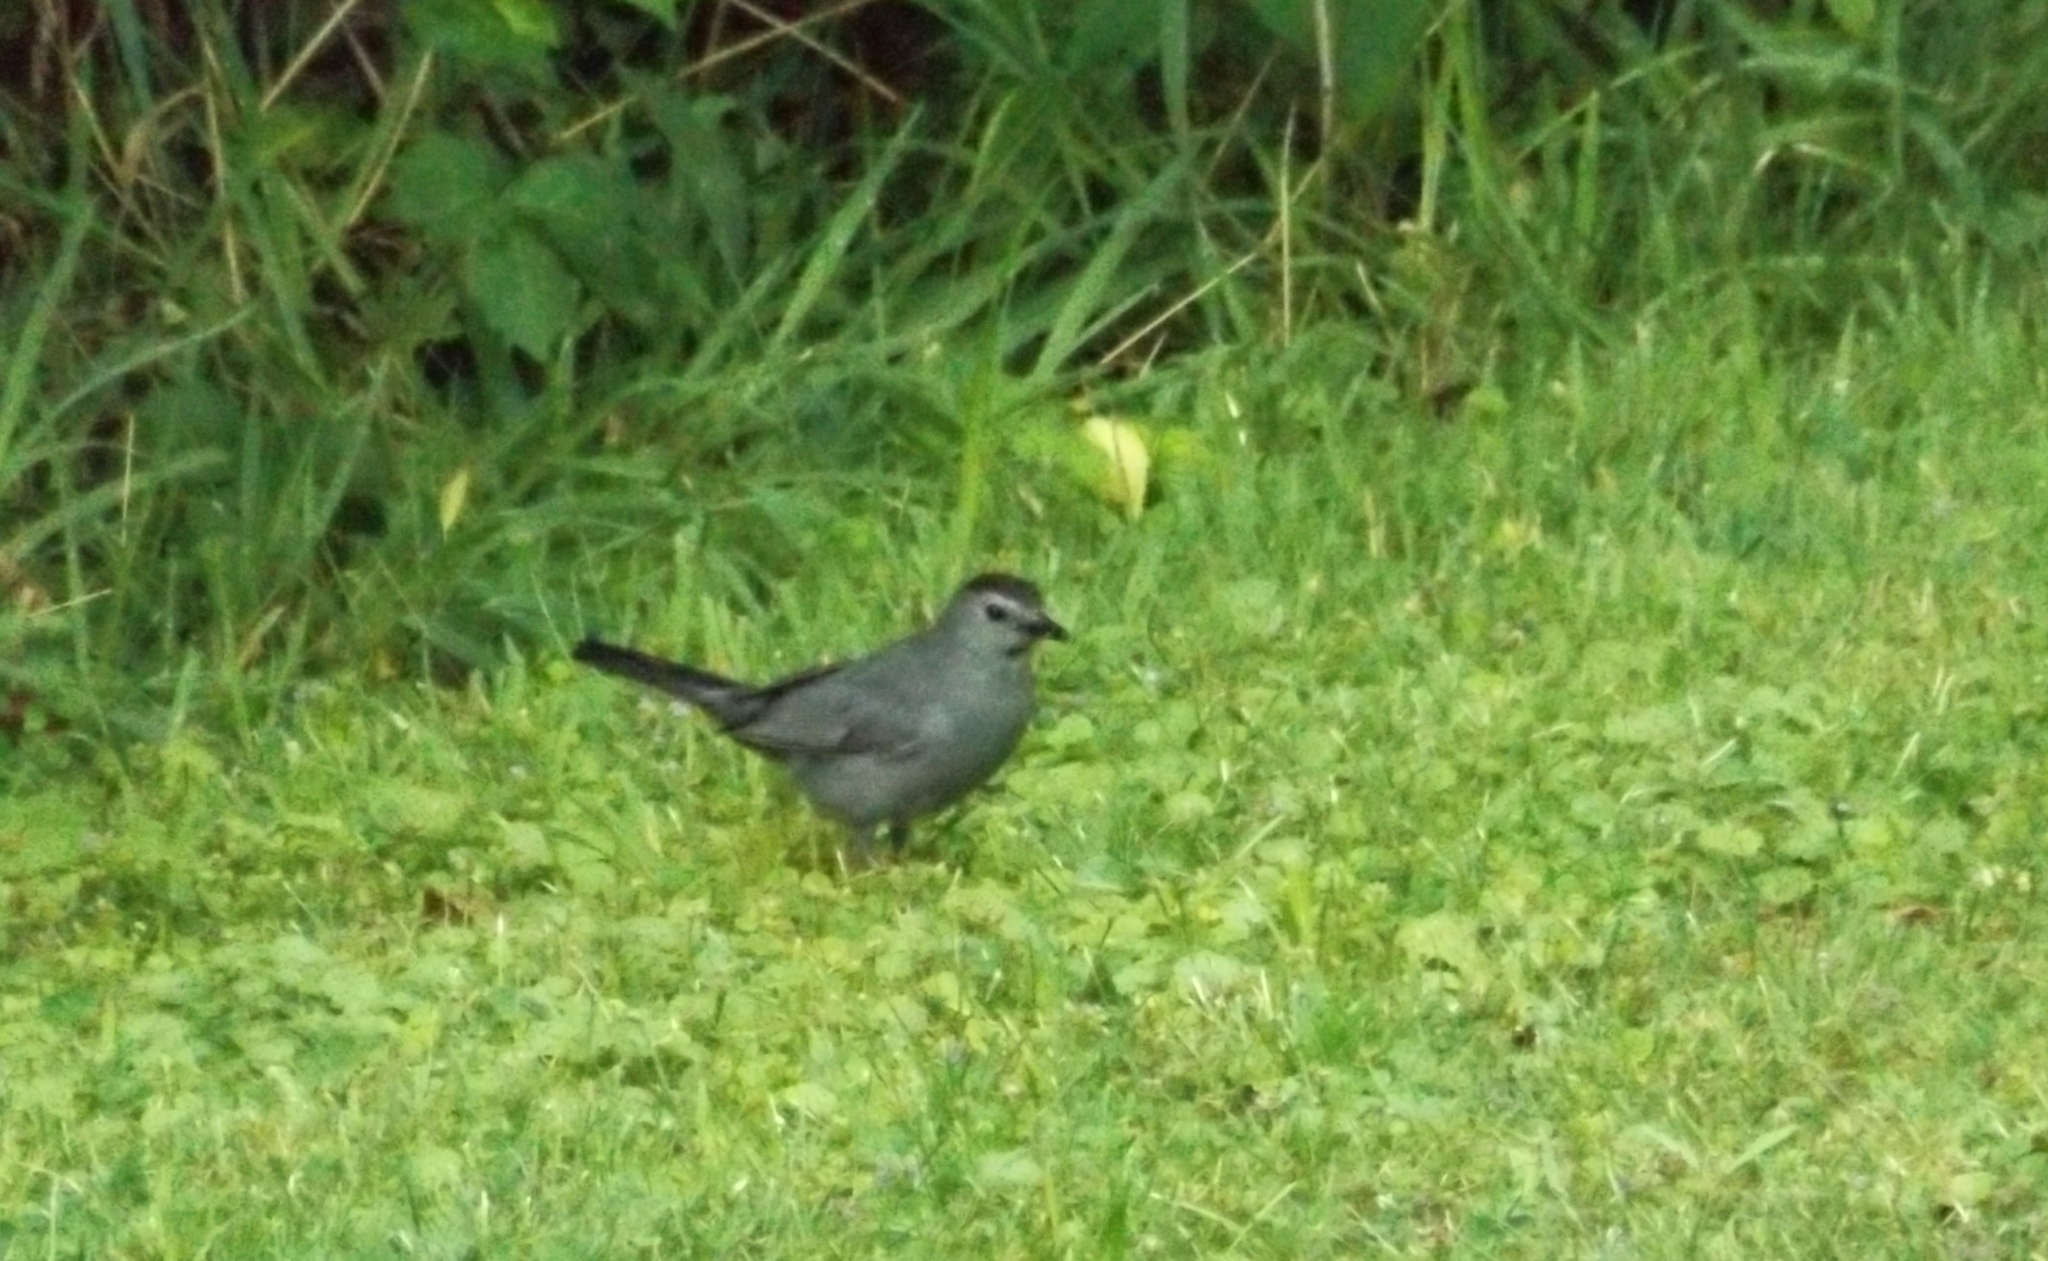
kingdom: Animalia
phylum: Chordata
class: Aves
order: Passeriformes
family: Mimidae
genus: Dumetella
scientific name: Dumetella carolinensis
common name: Gray catbird
